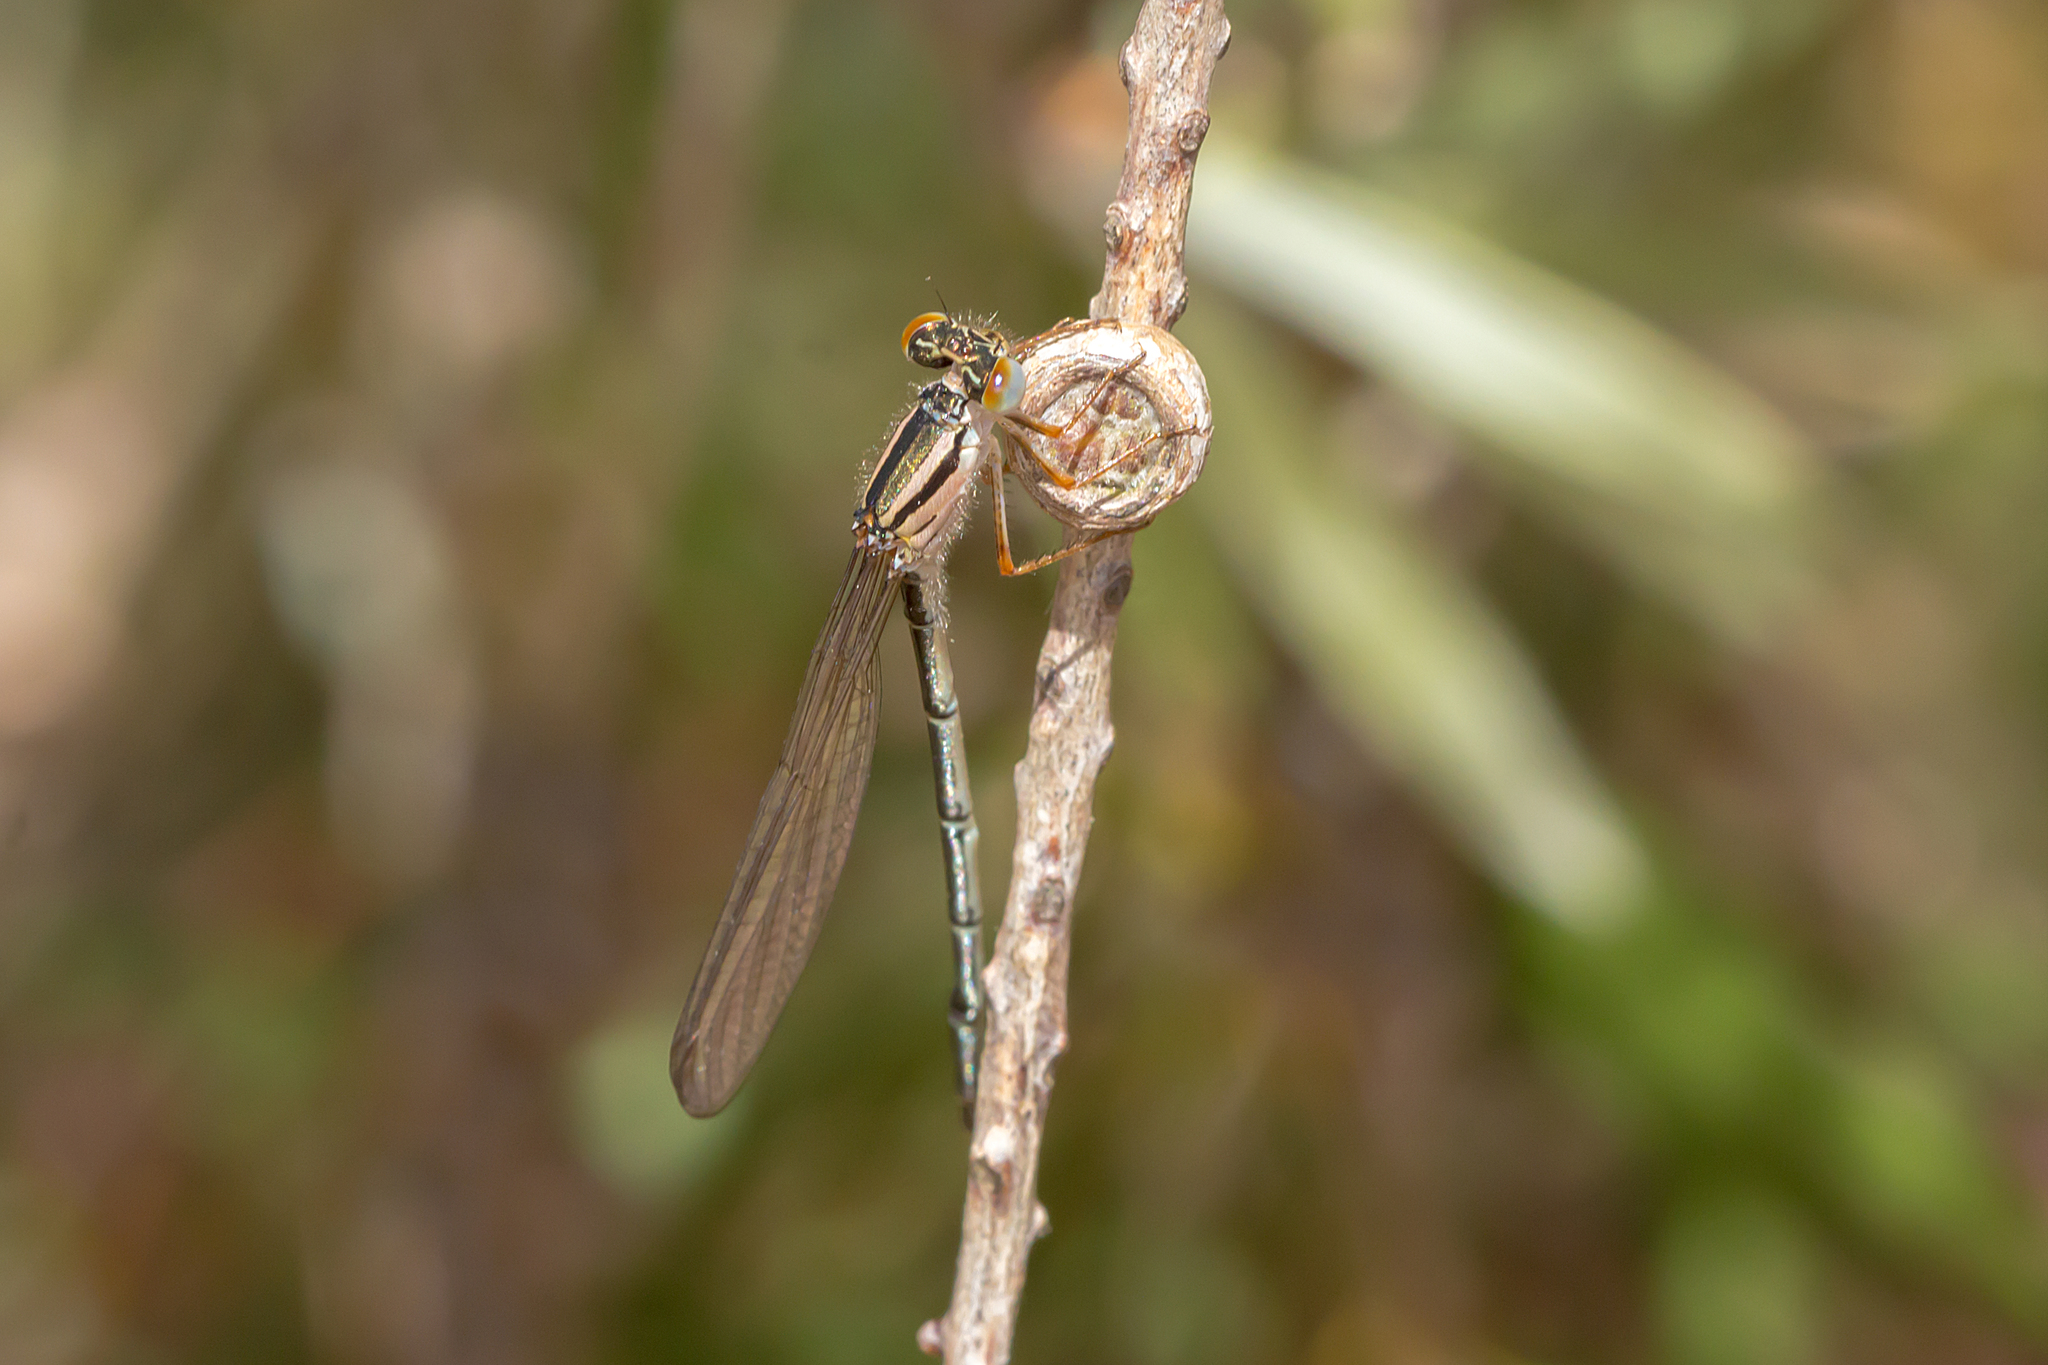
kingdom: Animalia
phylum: Arthropoda
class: Insecta
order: Odonata
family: Coenagrionidae
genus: Xanthagrion
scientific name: Xanthagrion erythroneurum
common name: Red and blue damsel
